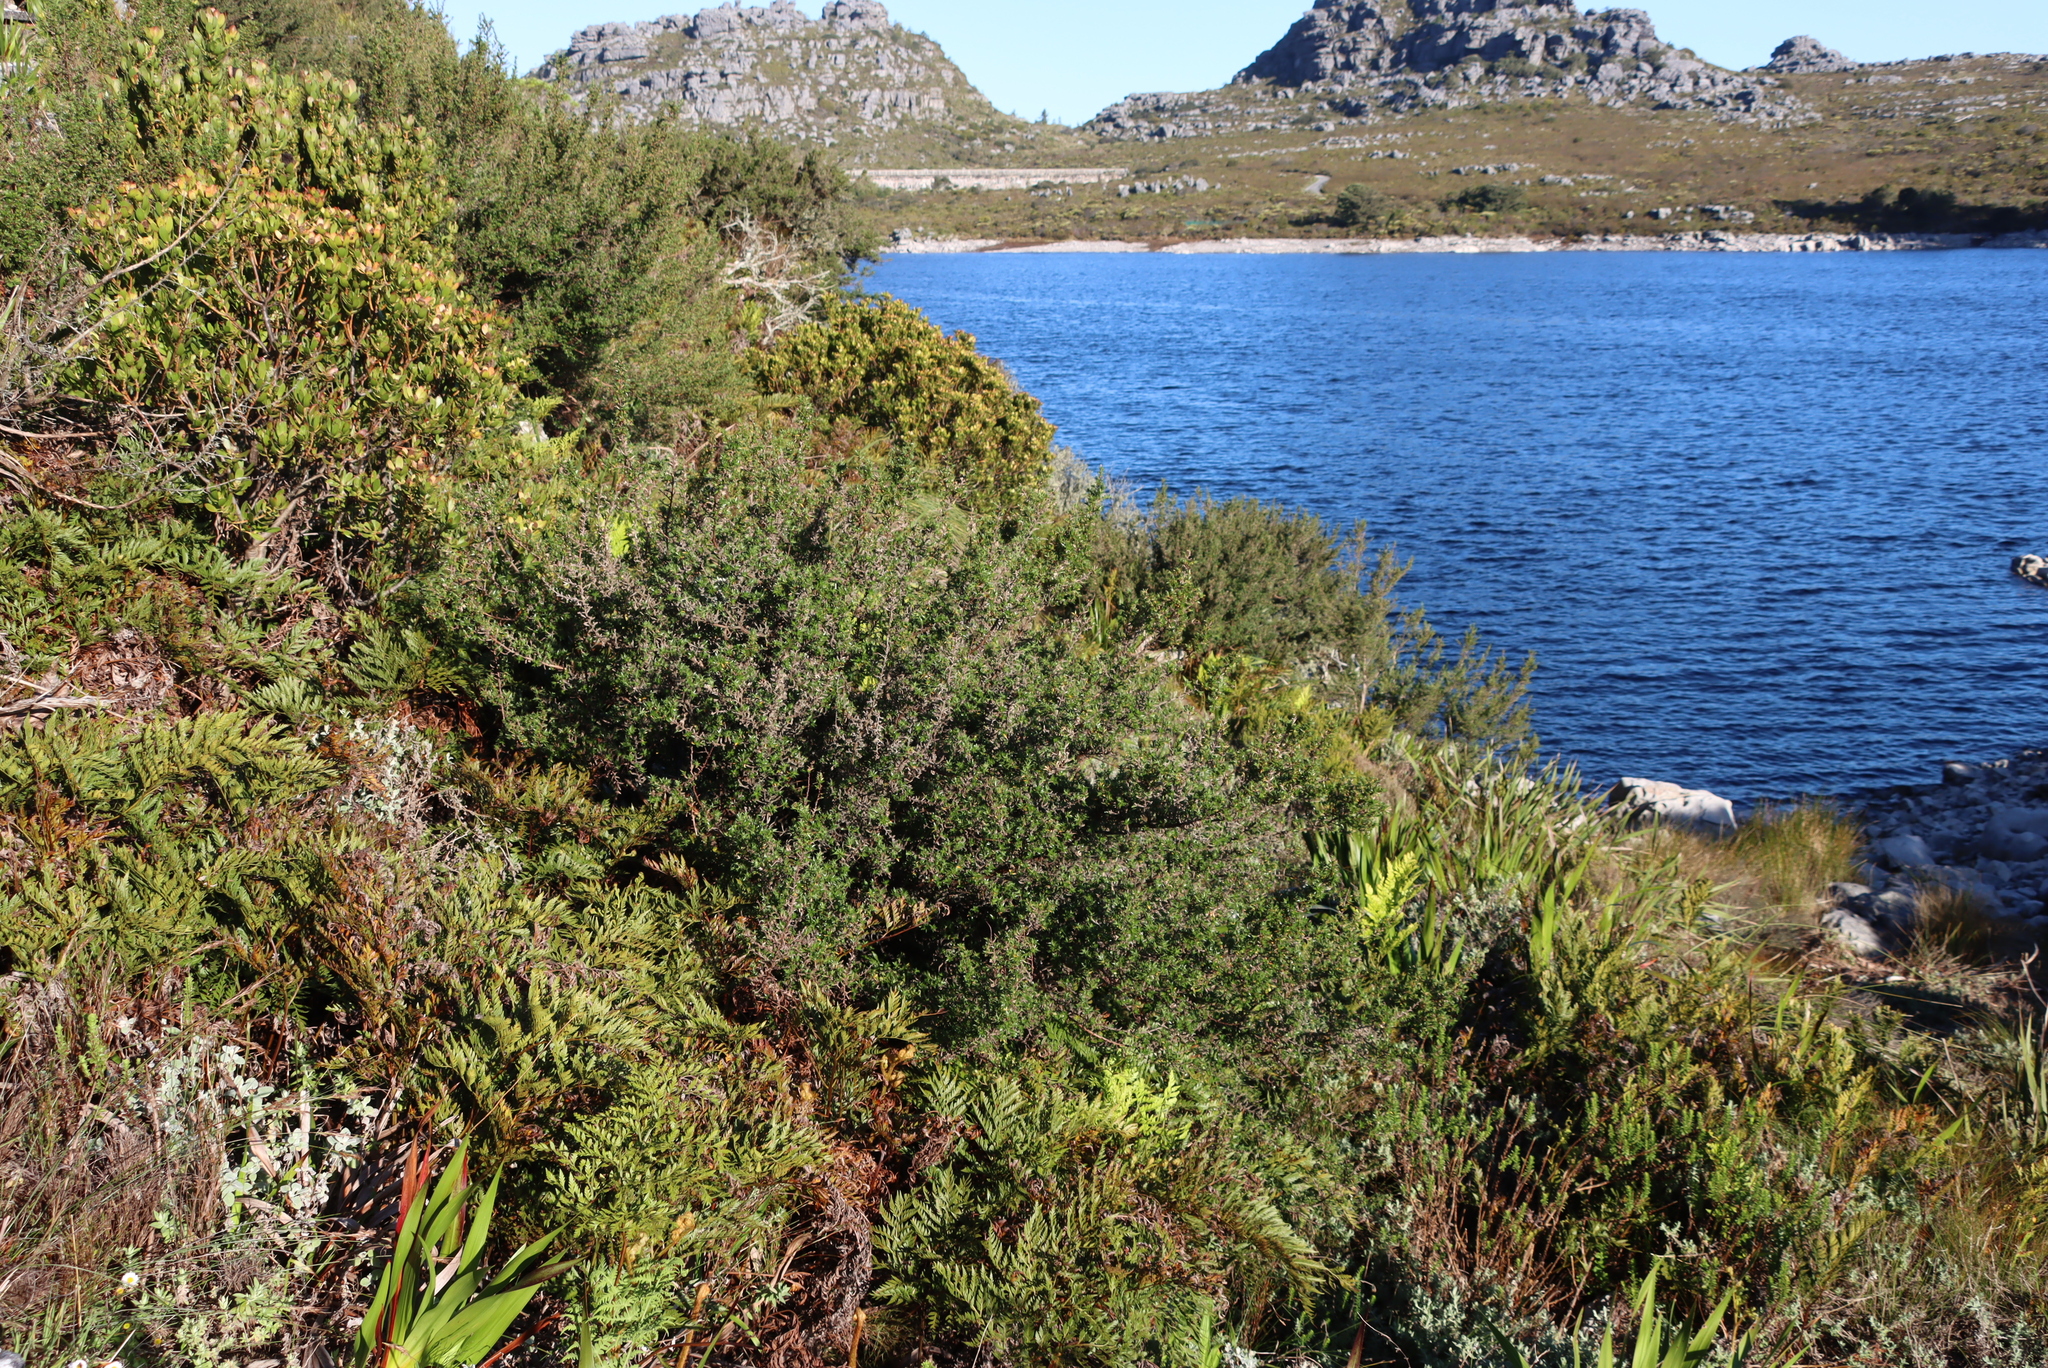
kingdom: Plantae
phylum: Tracheophyta
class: Magnoliopsida
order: Rosales
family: Rosaceae
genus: Cliffortia
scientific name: Cliffortia ruscifolia
